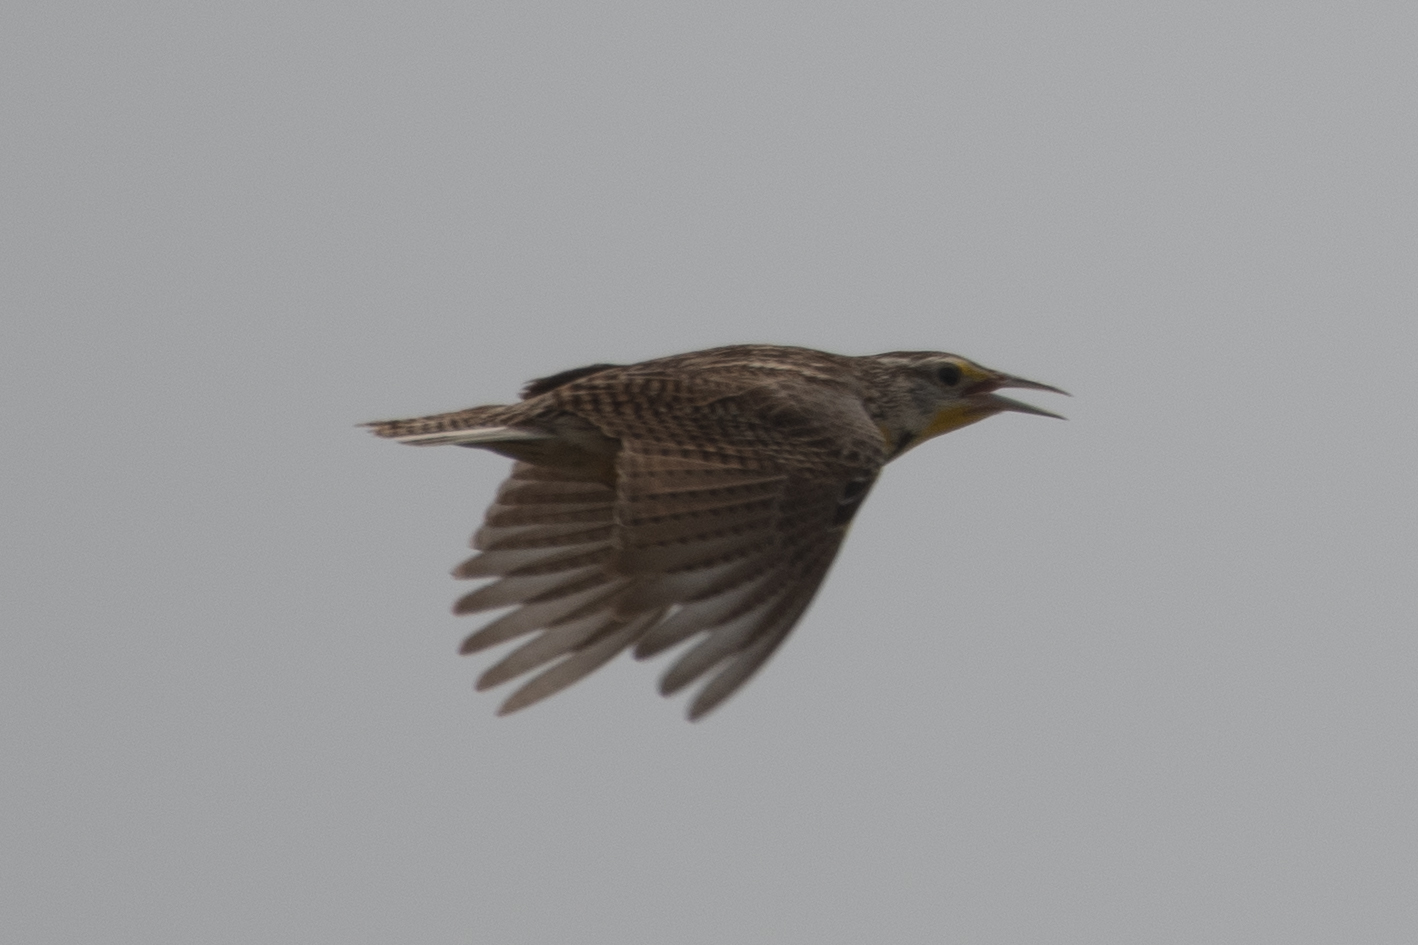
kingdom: Animalia
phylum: Chordata
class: Aves
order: Passeriformes
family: Icteridae
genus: Sturnella
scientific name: Sturnella neglecta
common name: Western meadowlark
